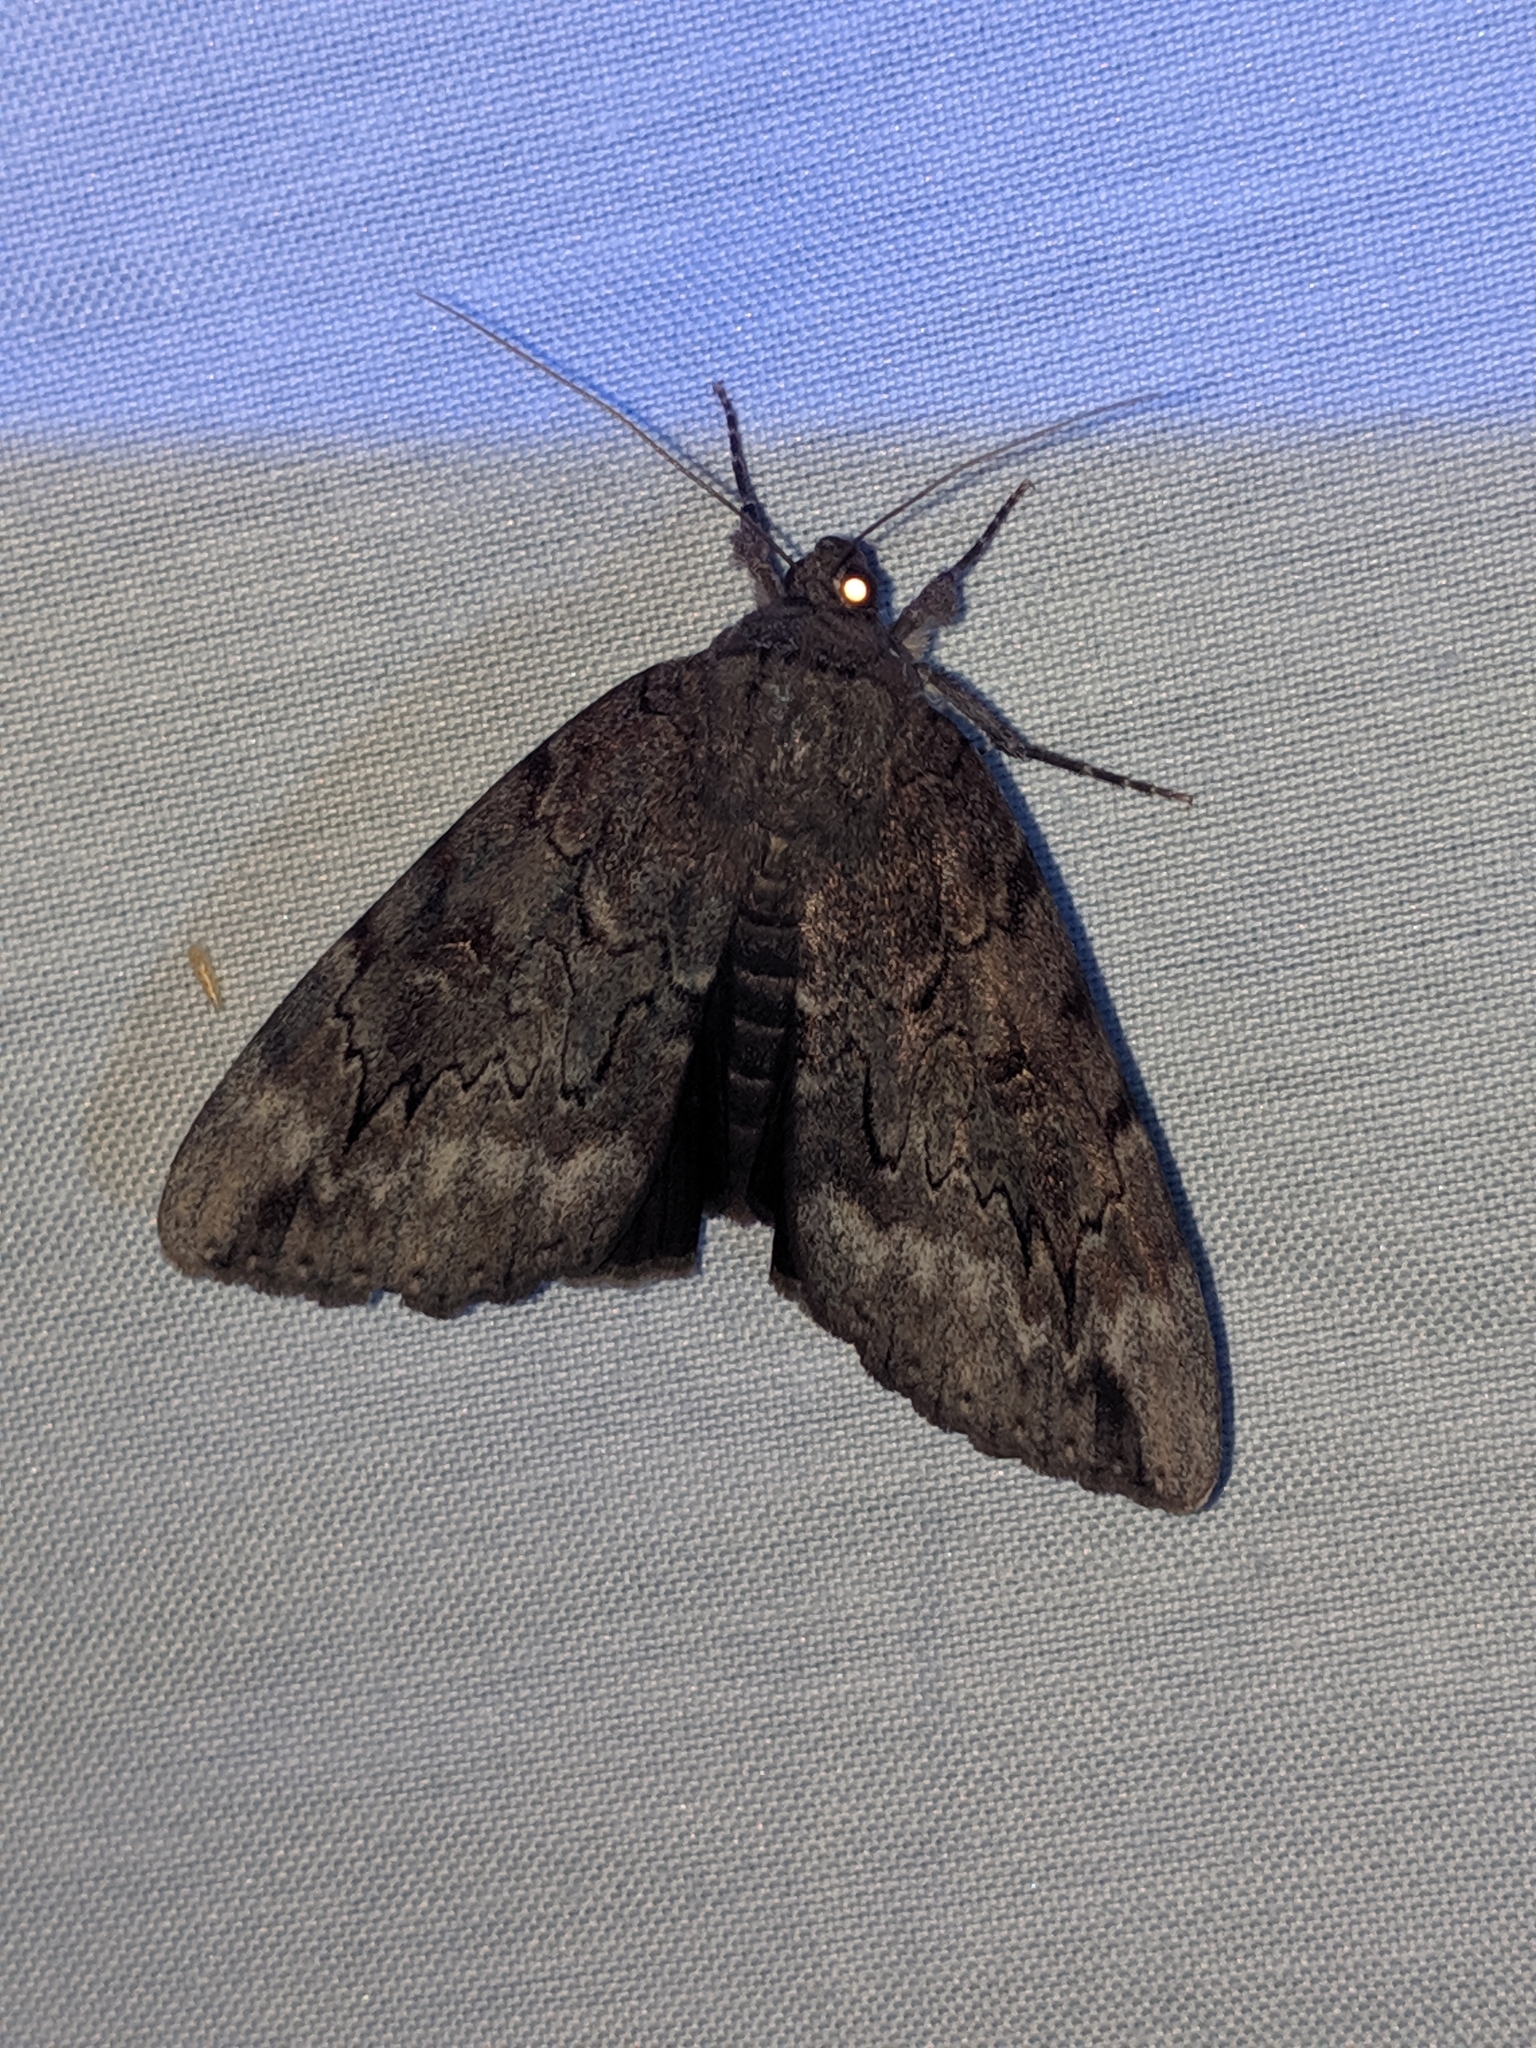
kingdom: Animalia
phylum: Arthropoda
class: Insecta
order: Lepidoptera
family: Erebidae
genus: Catocala
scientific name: Catocala residua
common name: Residua underwing
